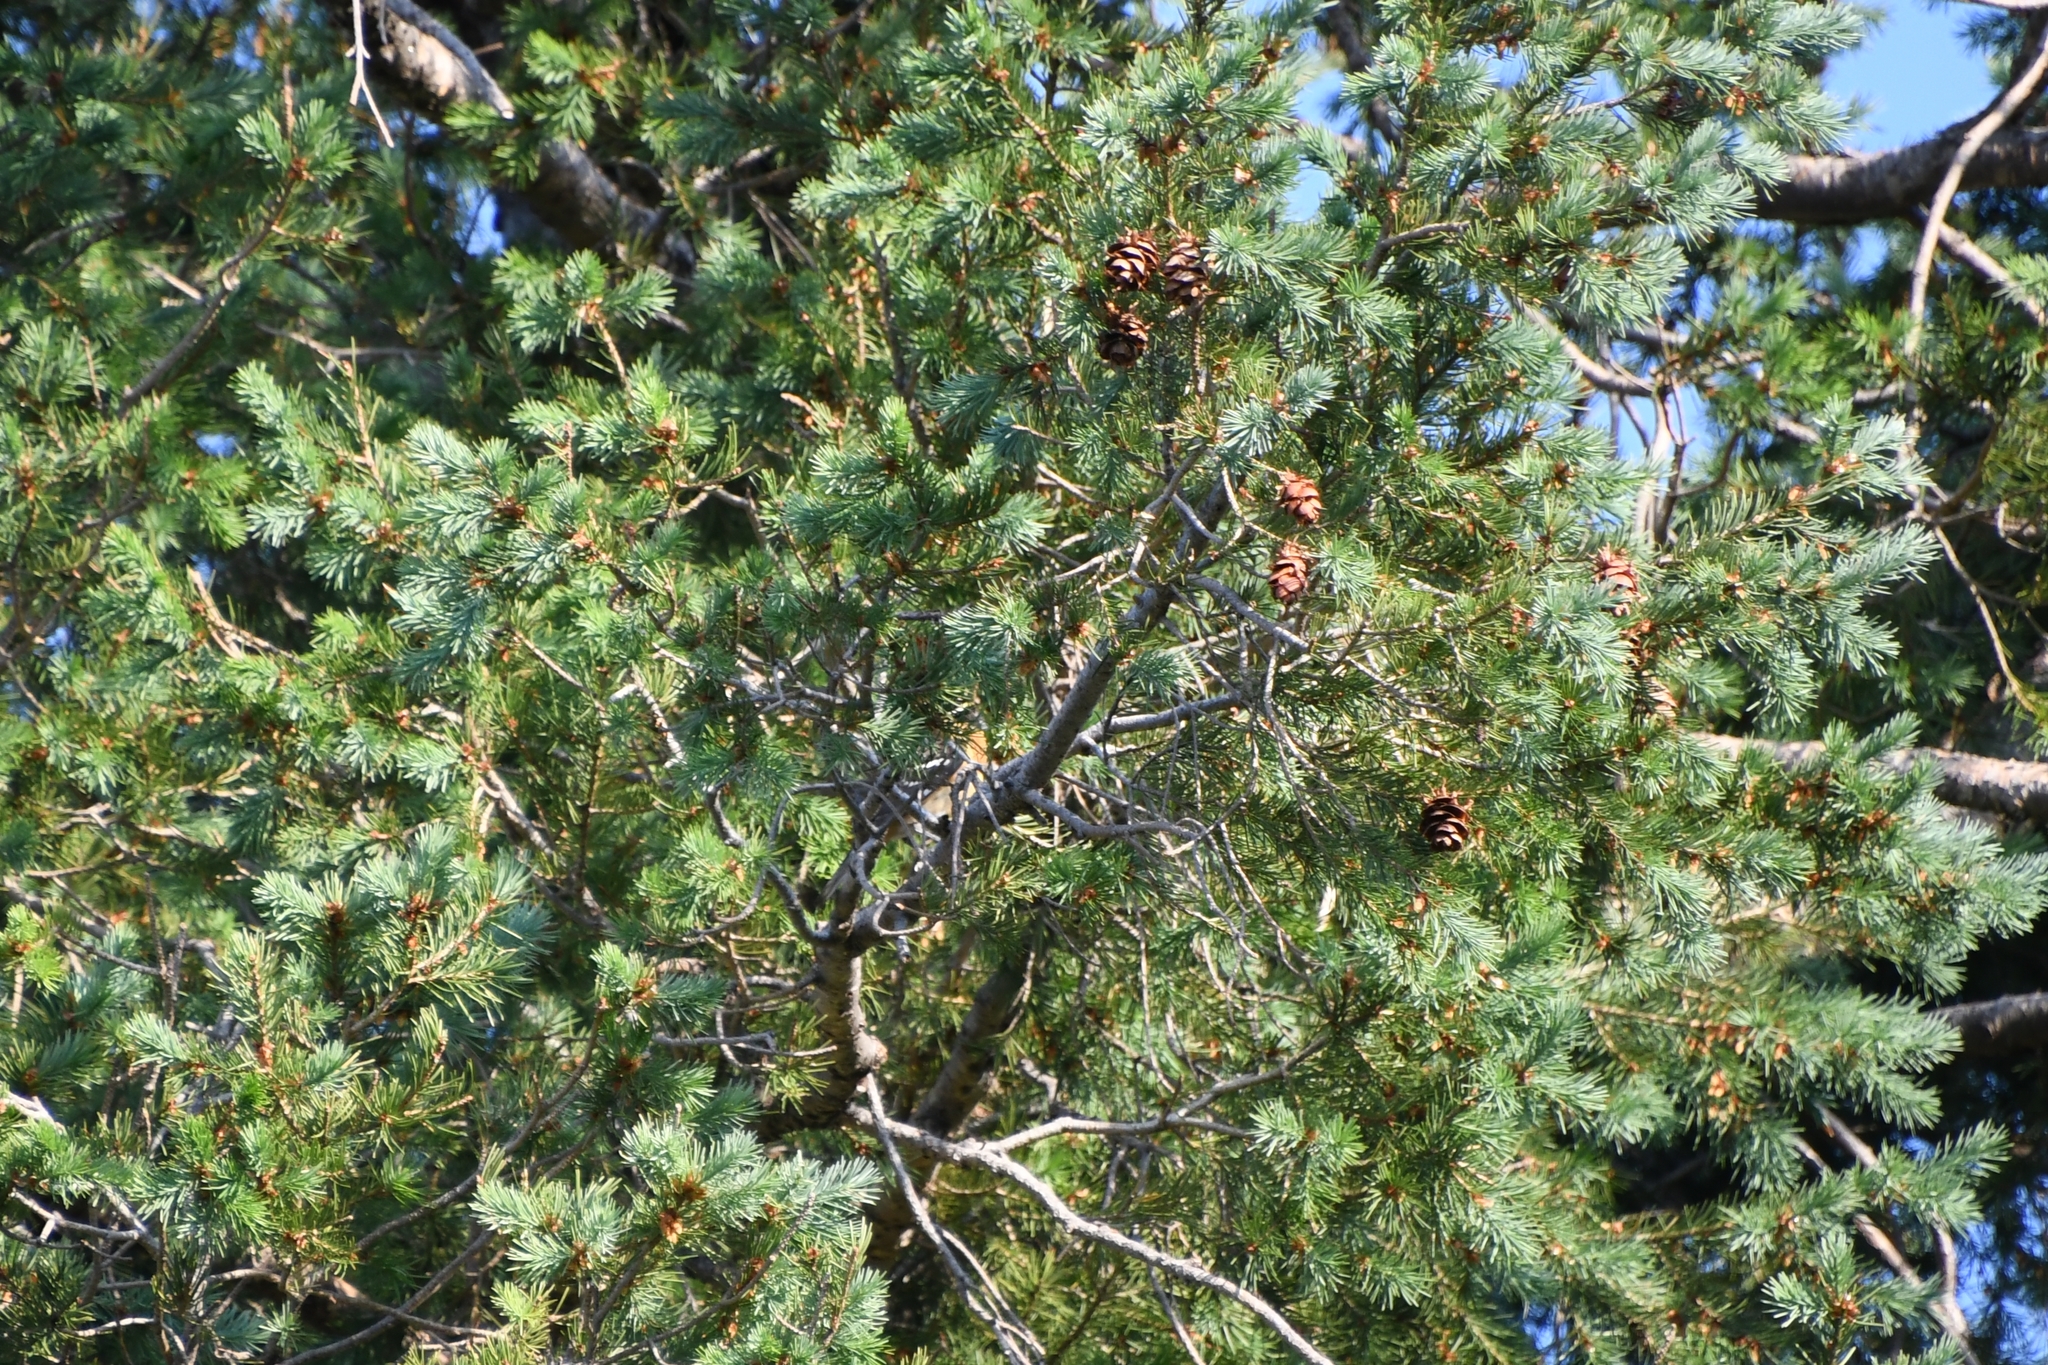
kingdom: Plantae
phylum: Tracheophyta
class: Pinopsida
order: Pinales
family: Pinaceae
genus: Pseudotsuga
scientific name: Pseudotsuga menziesii
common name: Douglas fir
